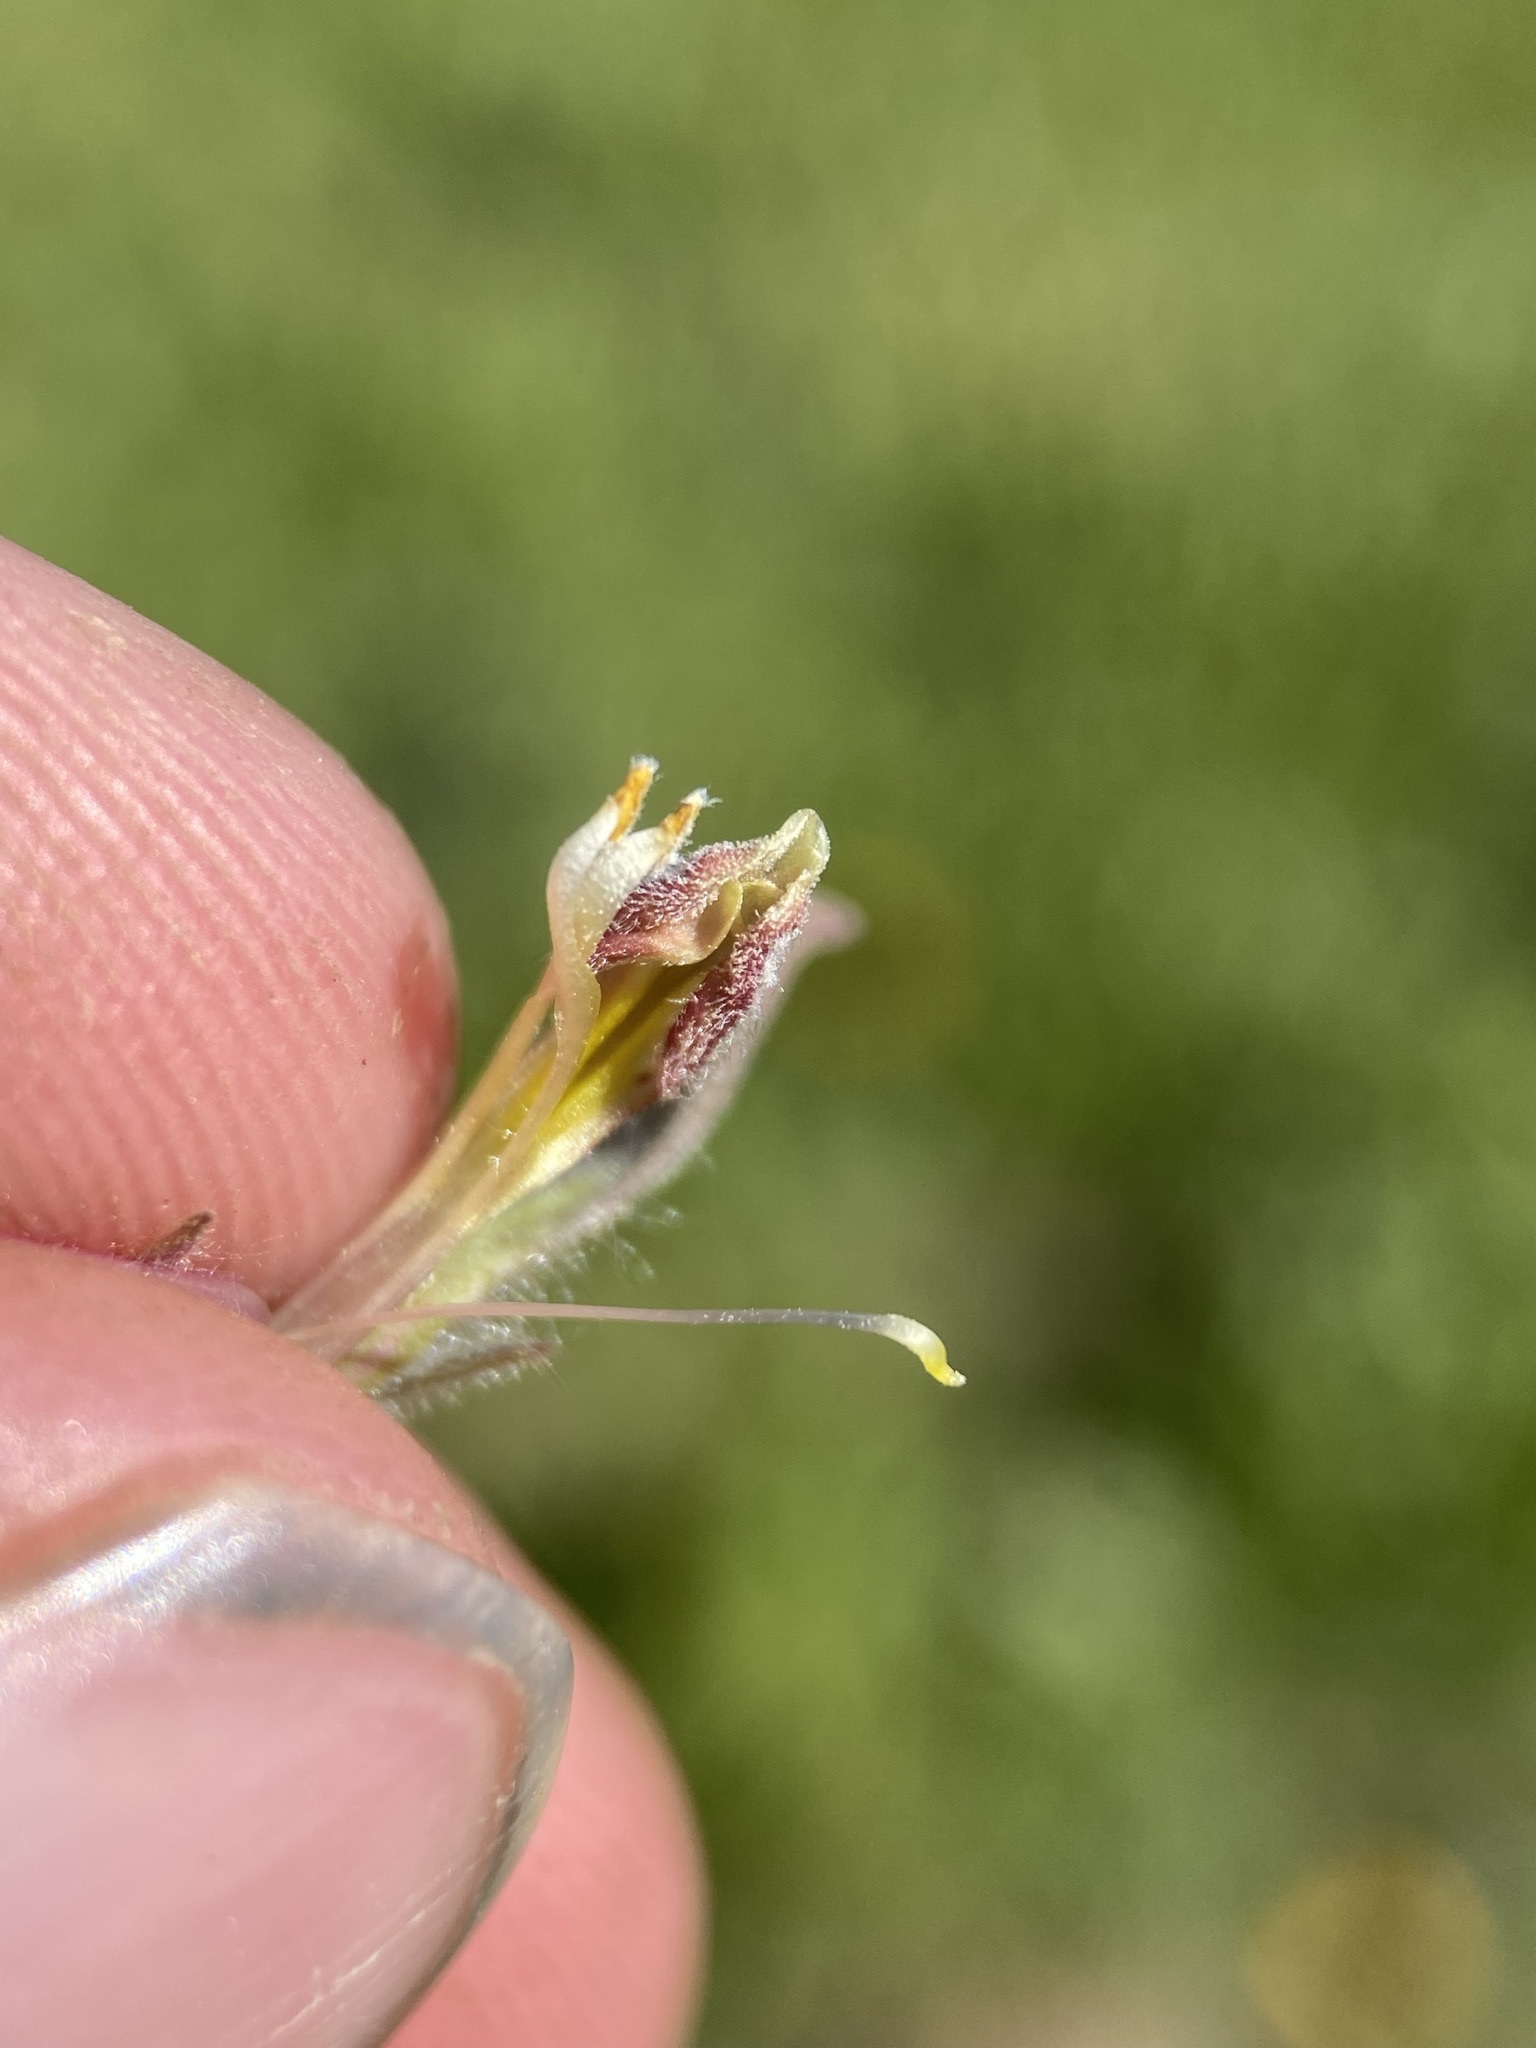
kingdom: Plantae
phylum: Tracheophyta
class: Magnoliopsida
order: Lamiales
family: Orobanchaceae
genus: Cordylanthus
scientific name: Cordylanthus capitatus
